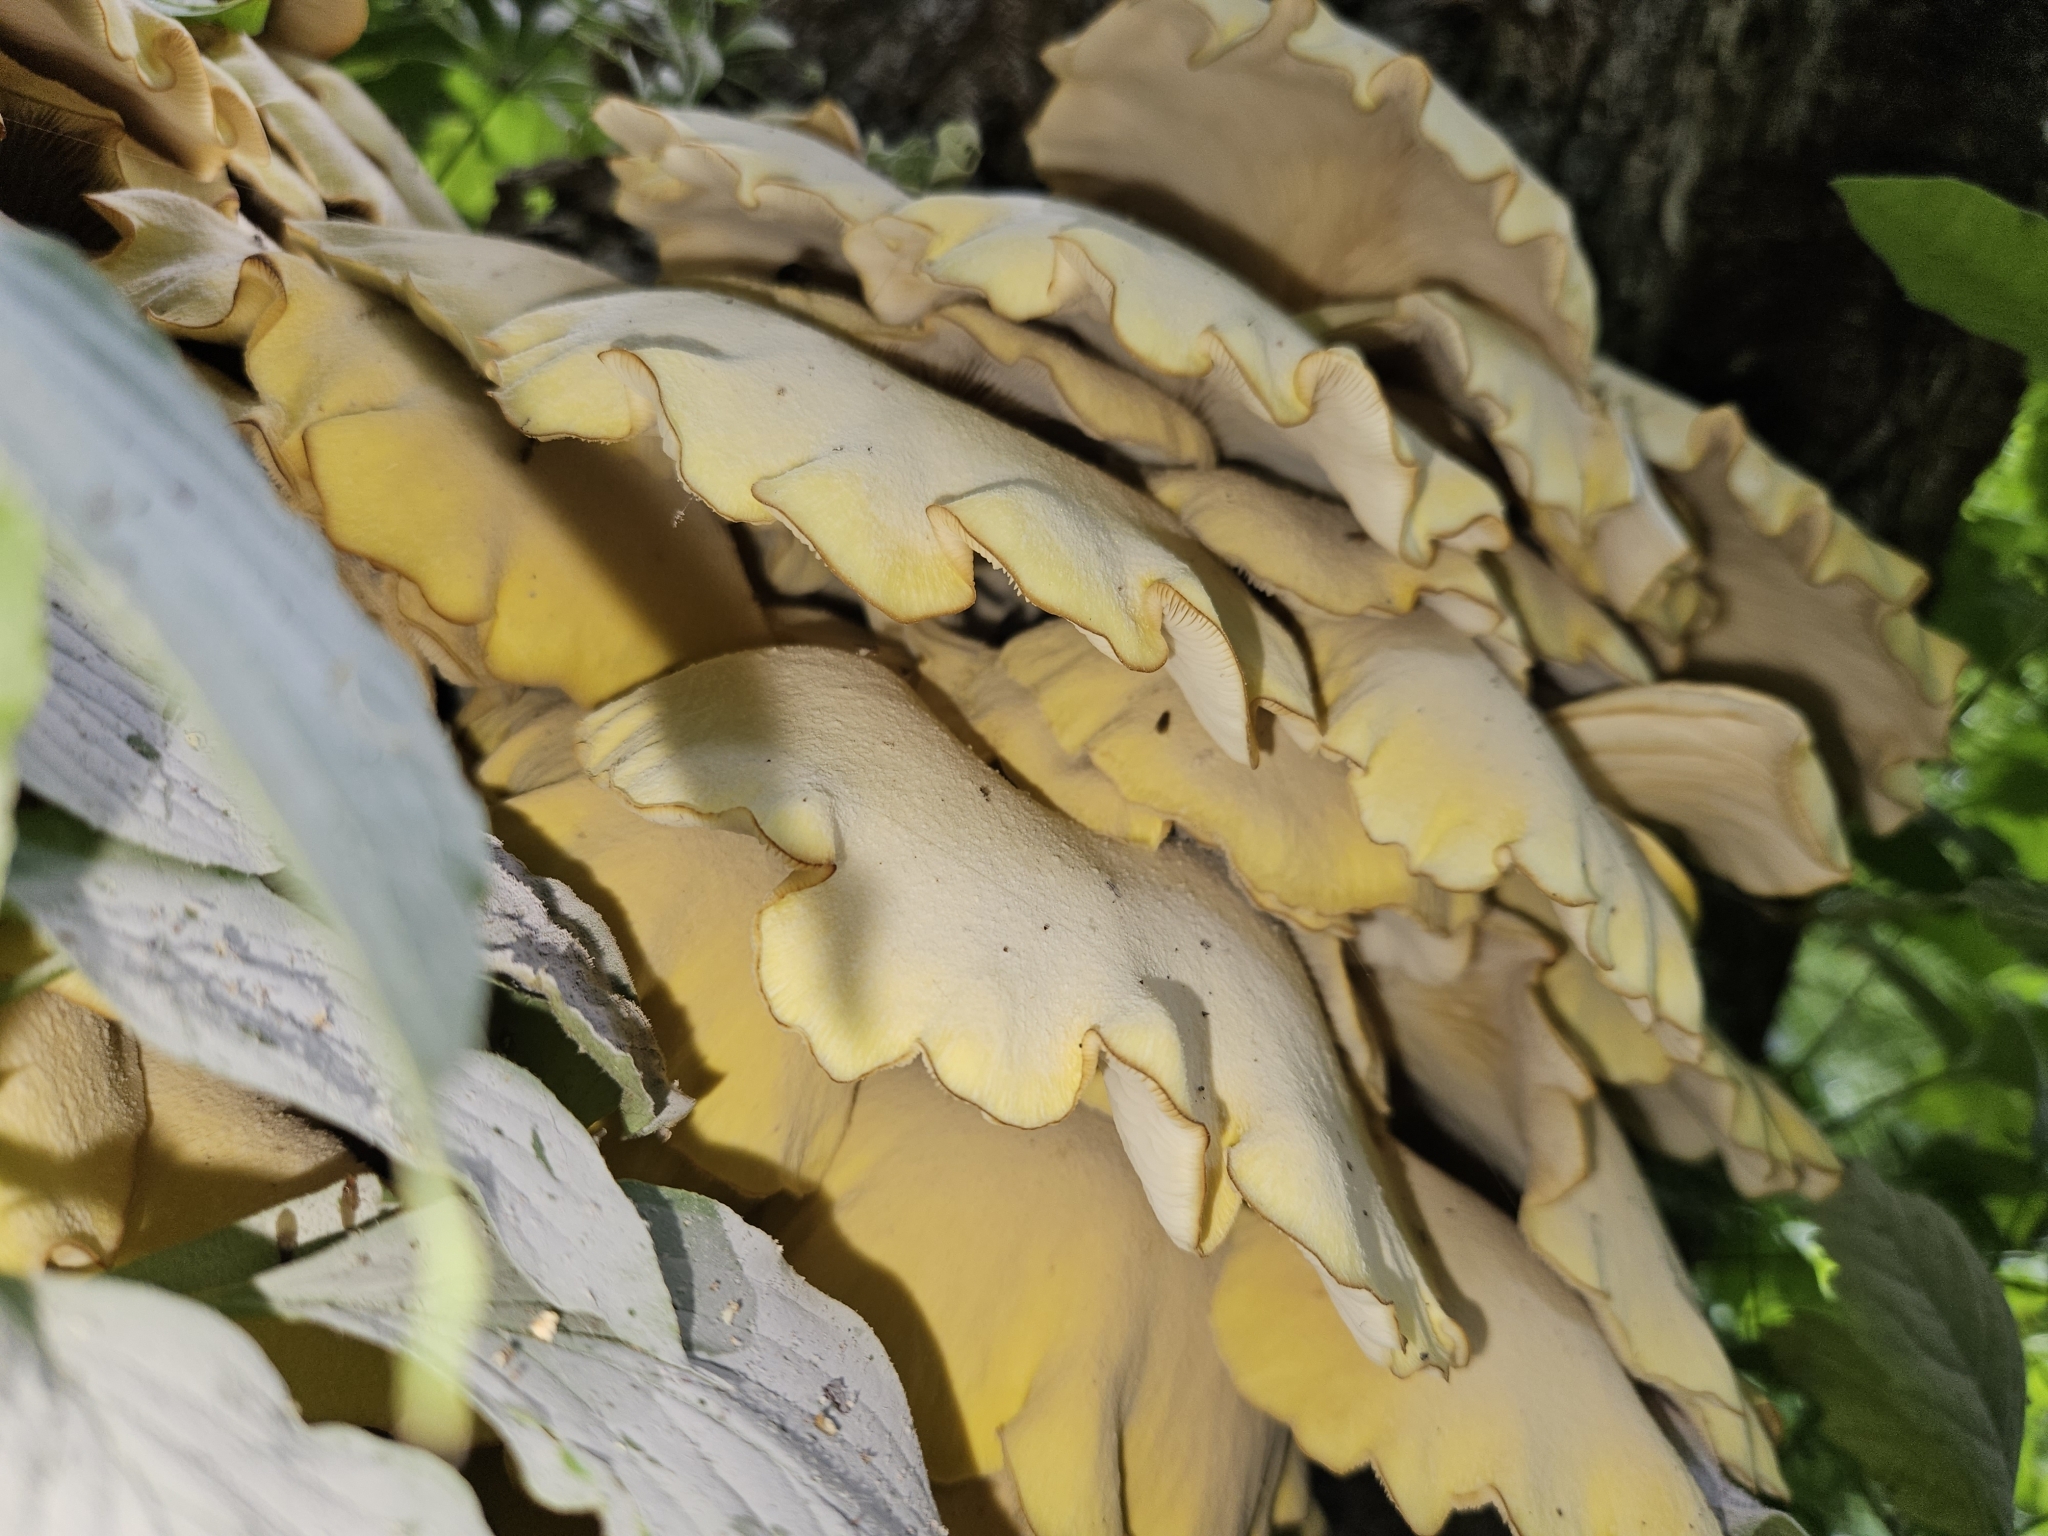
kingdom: Fungi
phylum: Basidiomycota
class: Agaricomycetes
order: Agaricales
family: Pleurotaceae
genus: Pleurotus
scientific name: Pleurotus citrinopileatus
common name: Golden oyster mushroom
